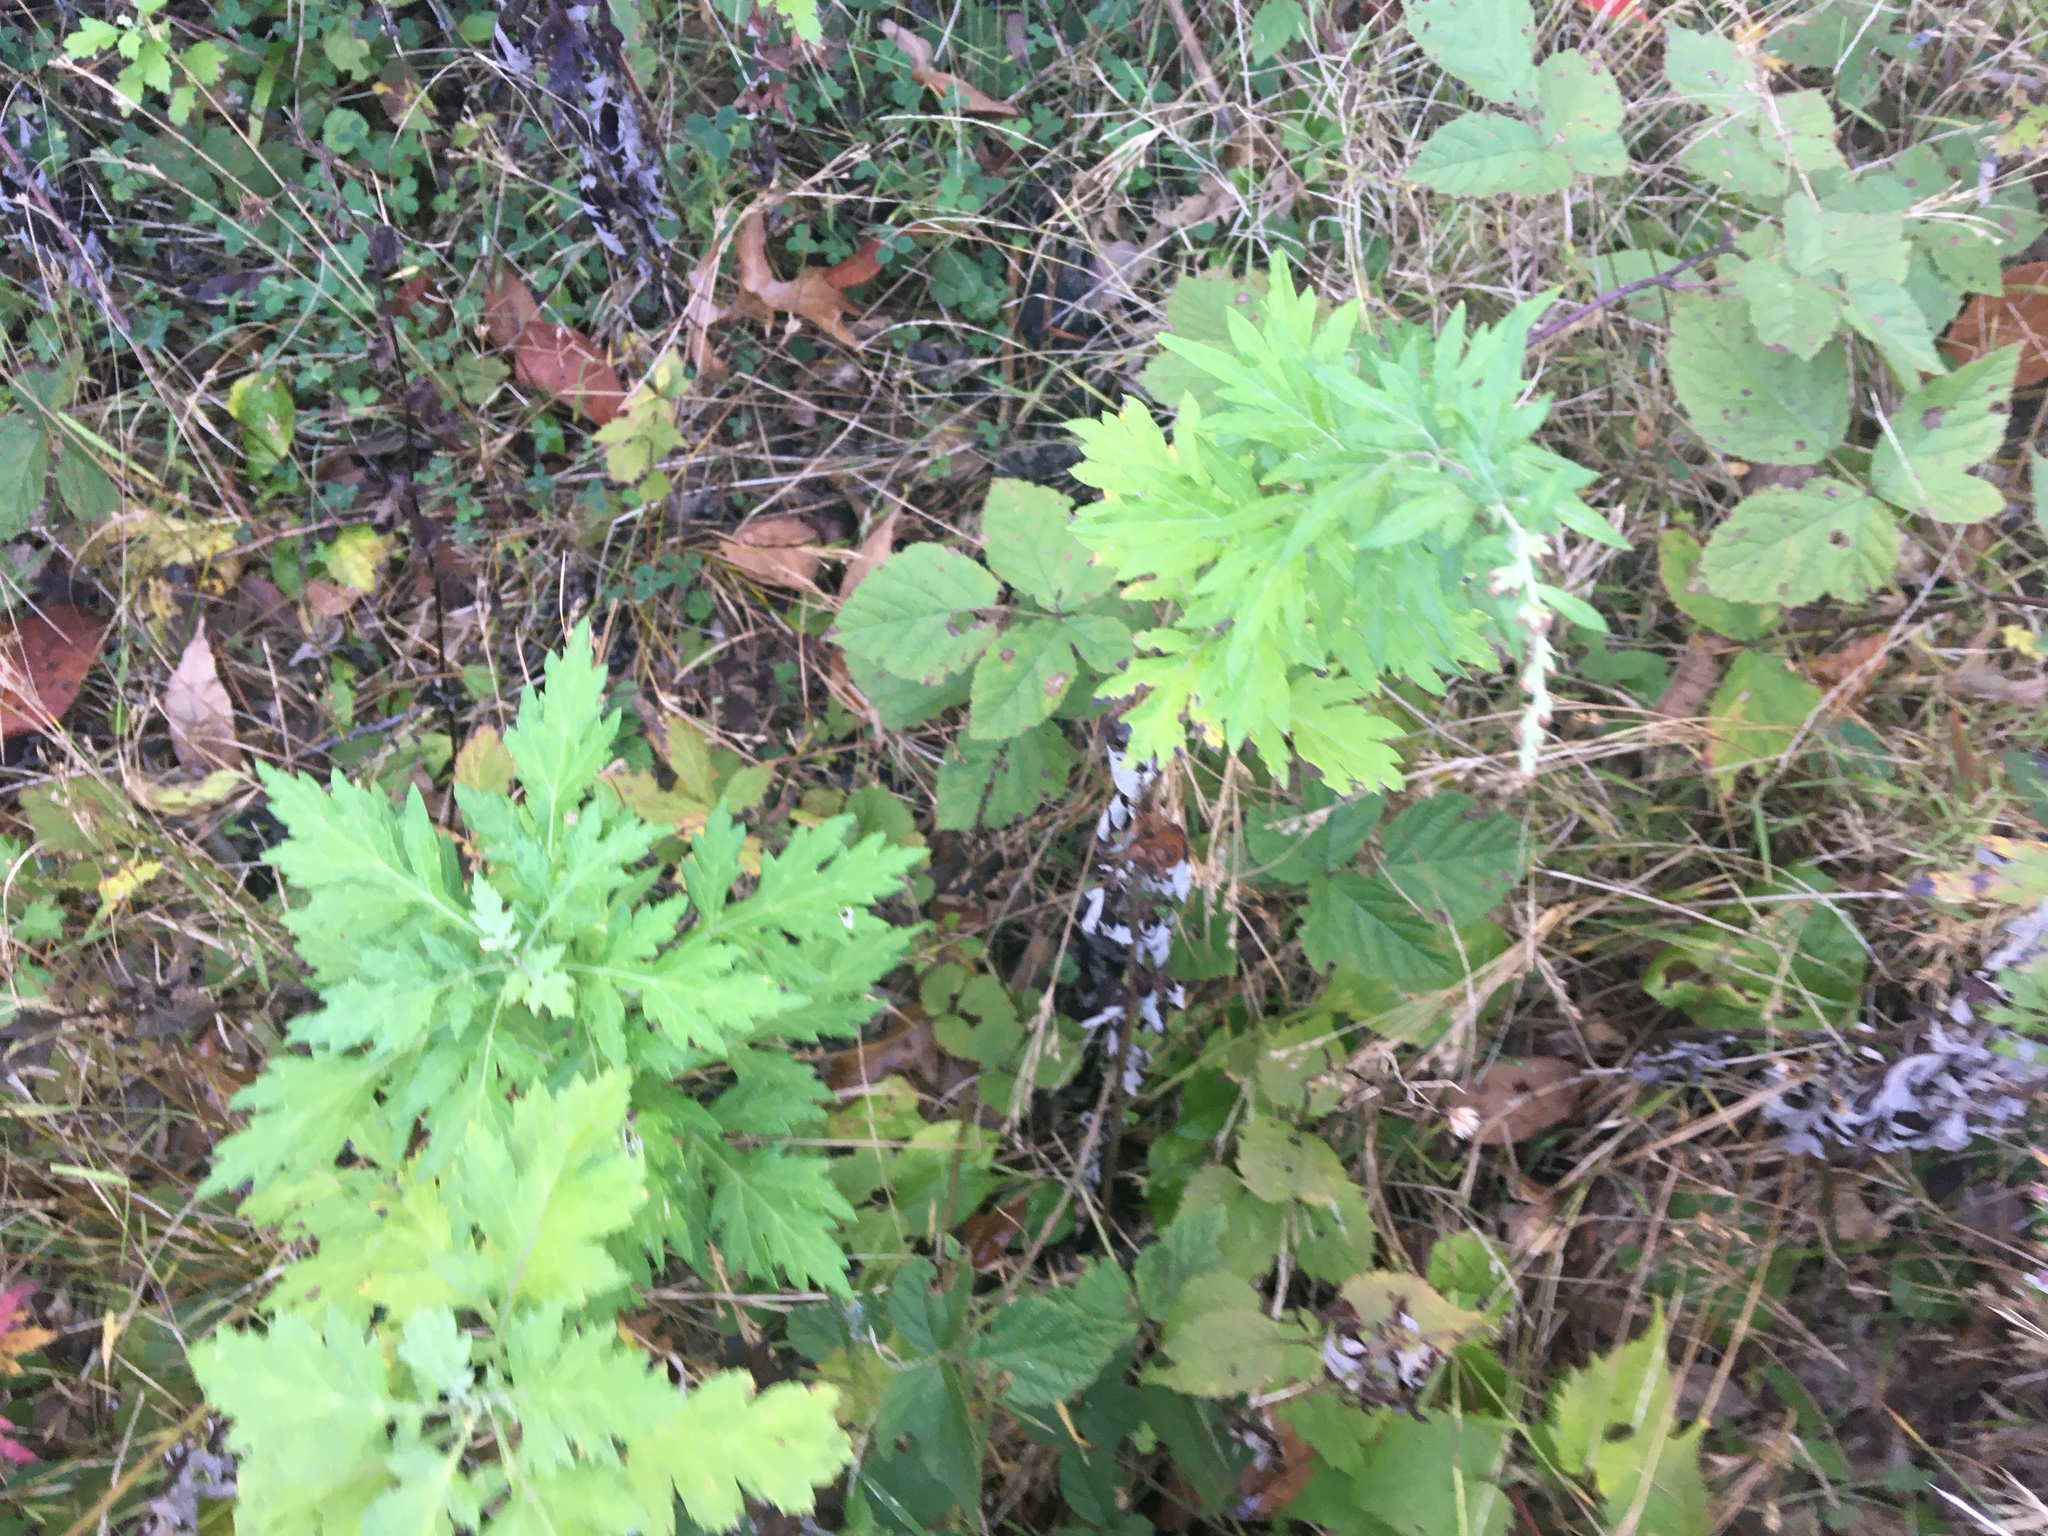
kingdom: Plantae
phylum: Tracheophyta
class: Magnoliopsida
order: Asterales
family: Asteraceae
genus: Artemisia
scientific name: Artemisia vulgaris
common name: Mugwort
